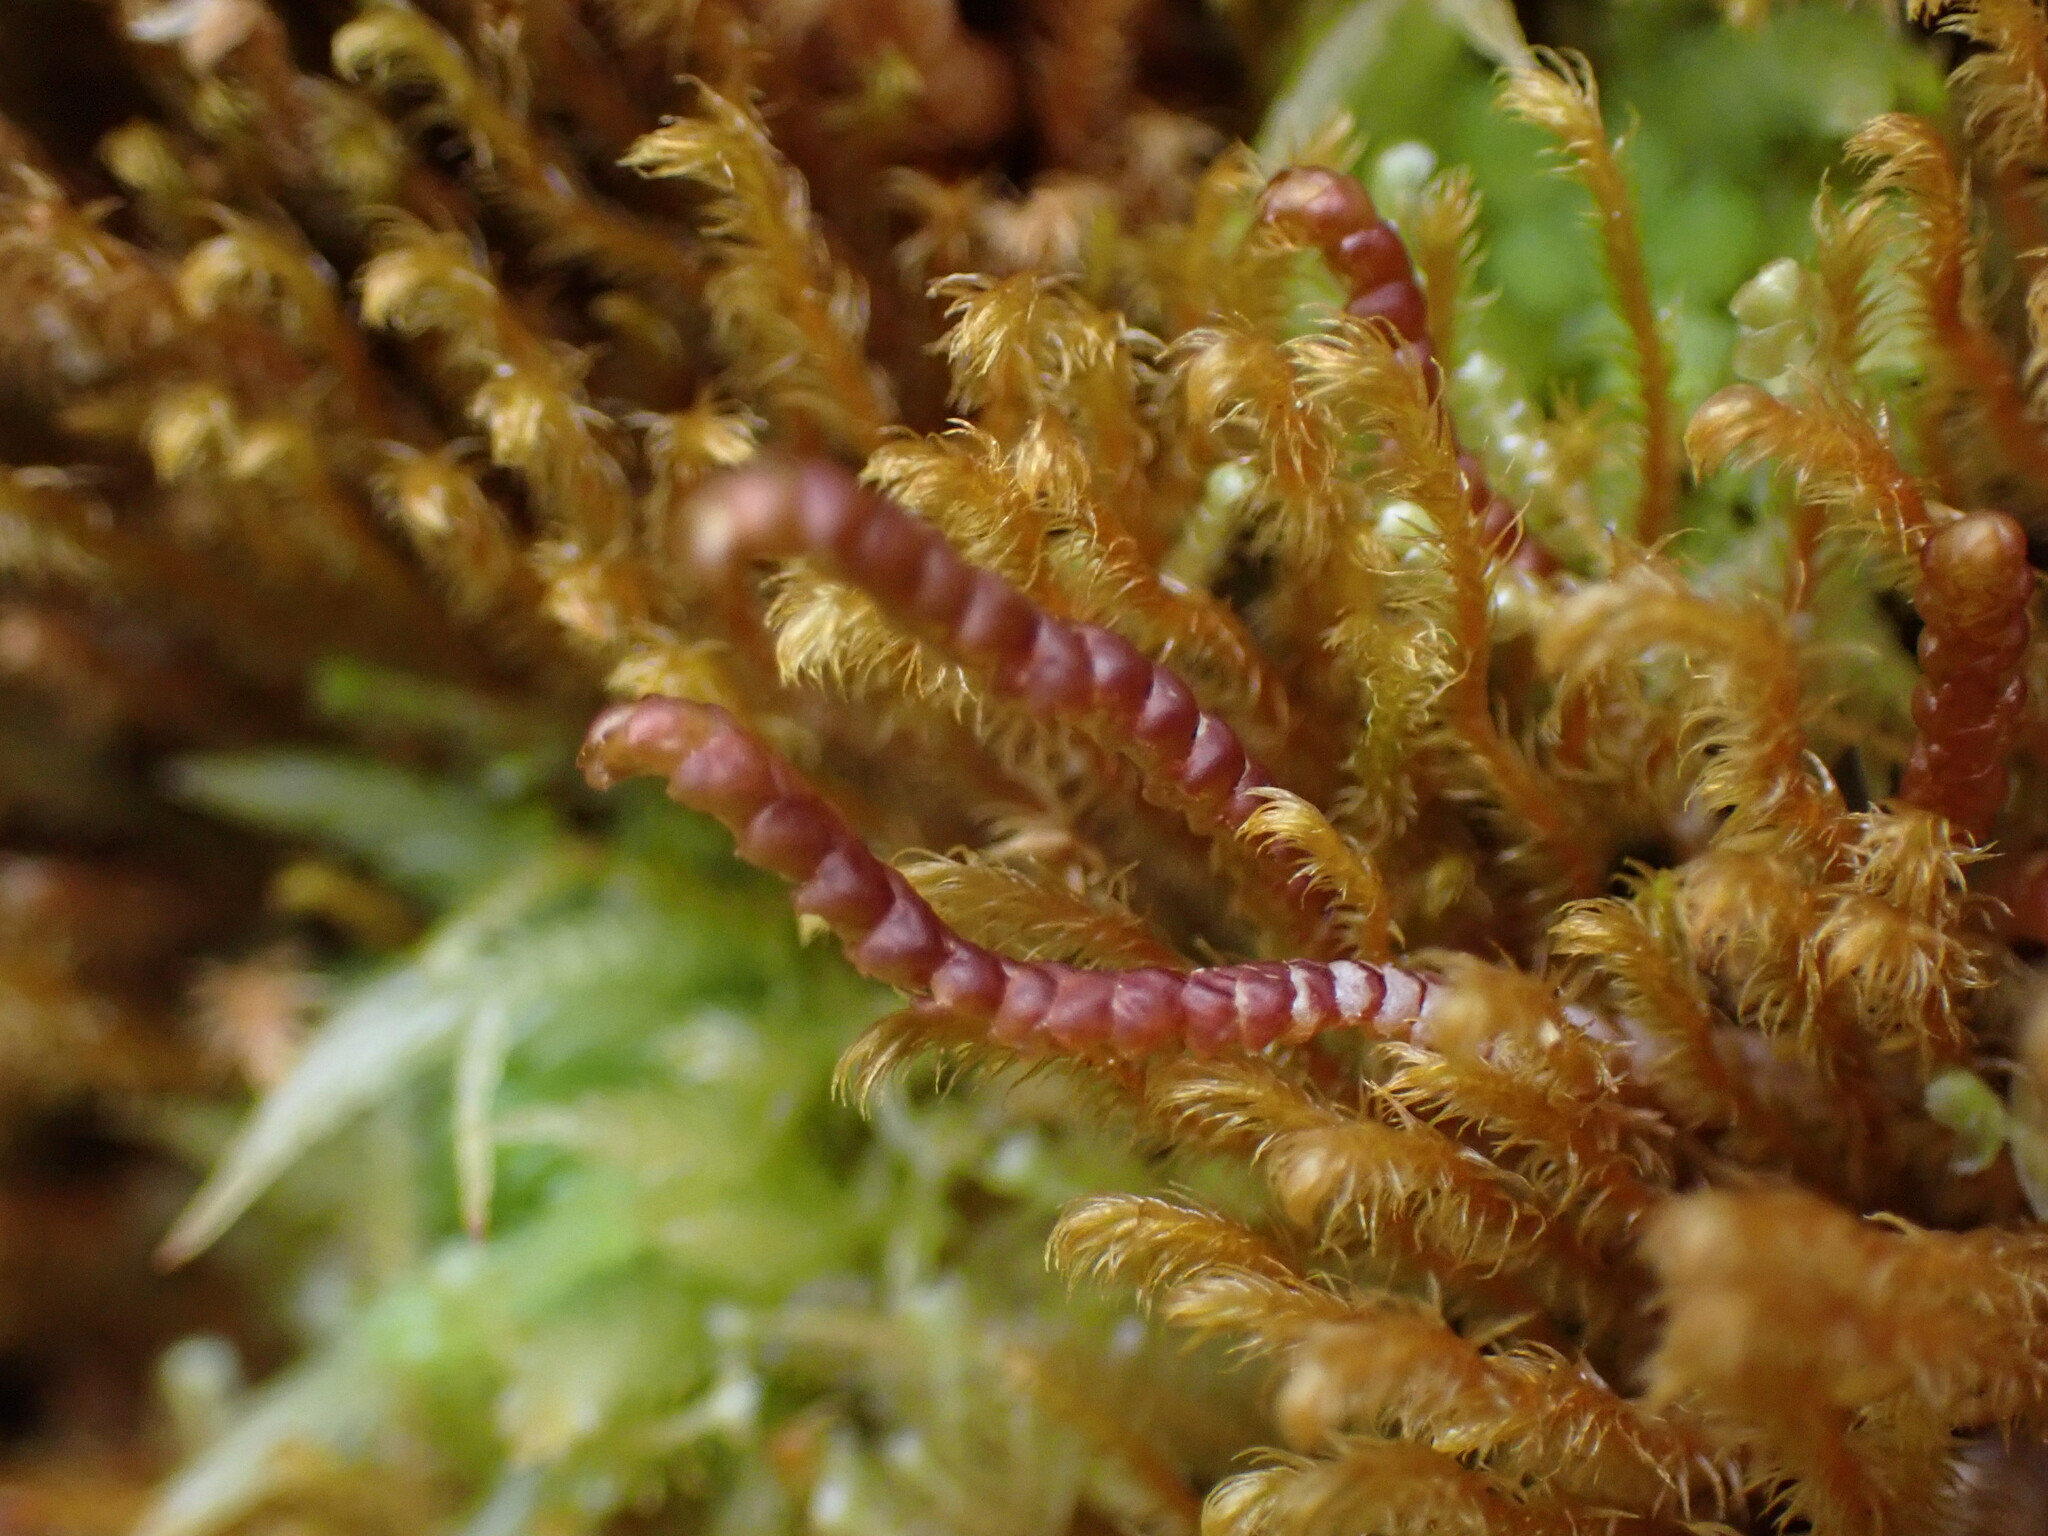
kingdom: Plantae
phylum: Marchantiophyta
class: Jungermanniopsida
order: Pleuroziales
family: Pleuroziaceae
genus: Pleurozia
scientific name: Pleurozia purpurea
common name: Purple spoonwort
